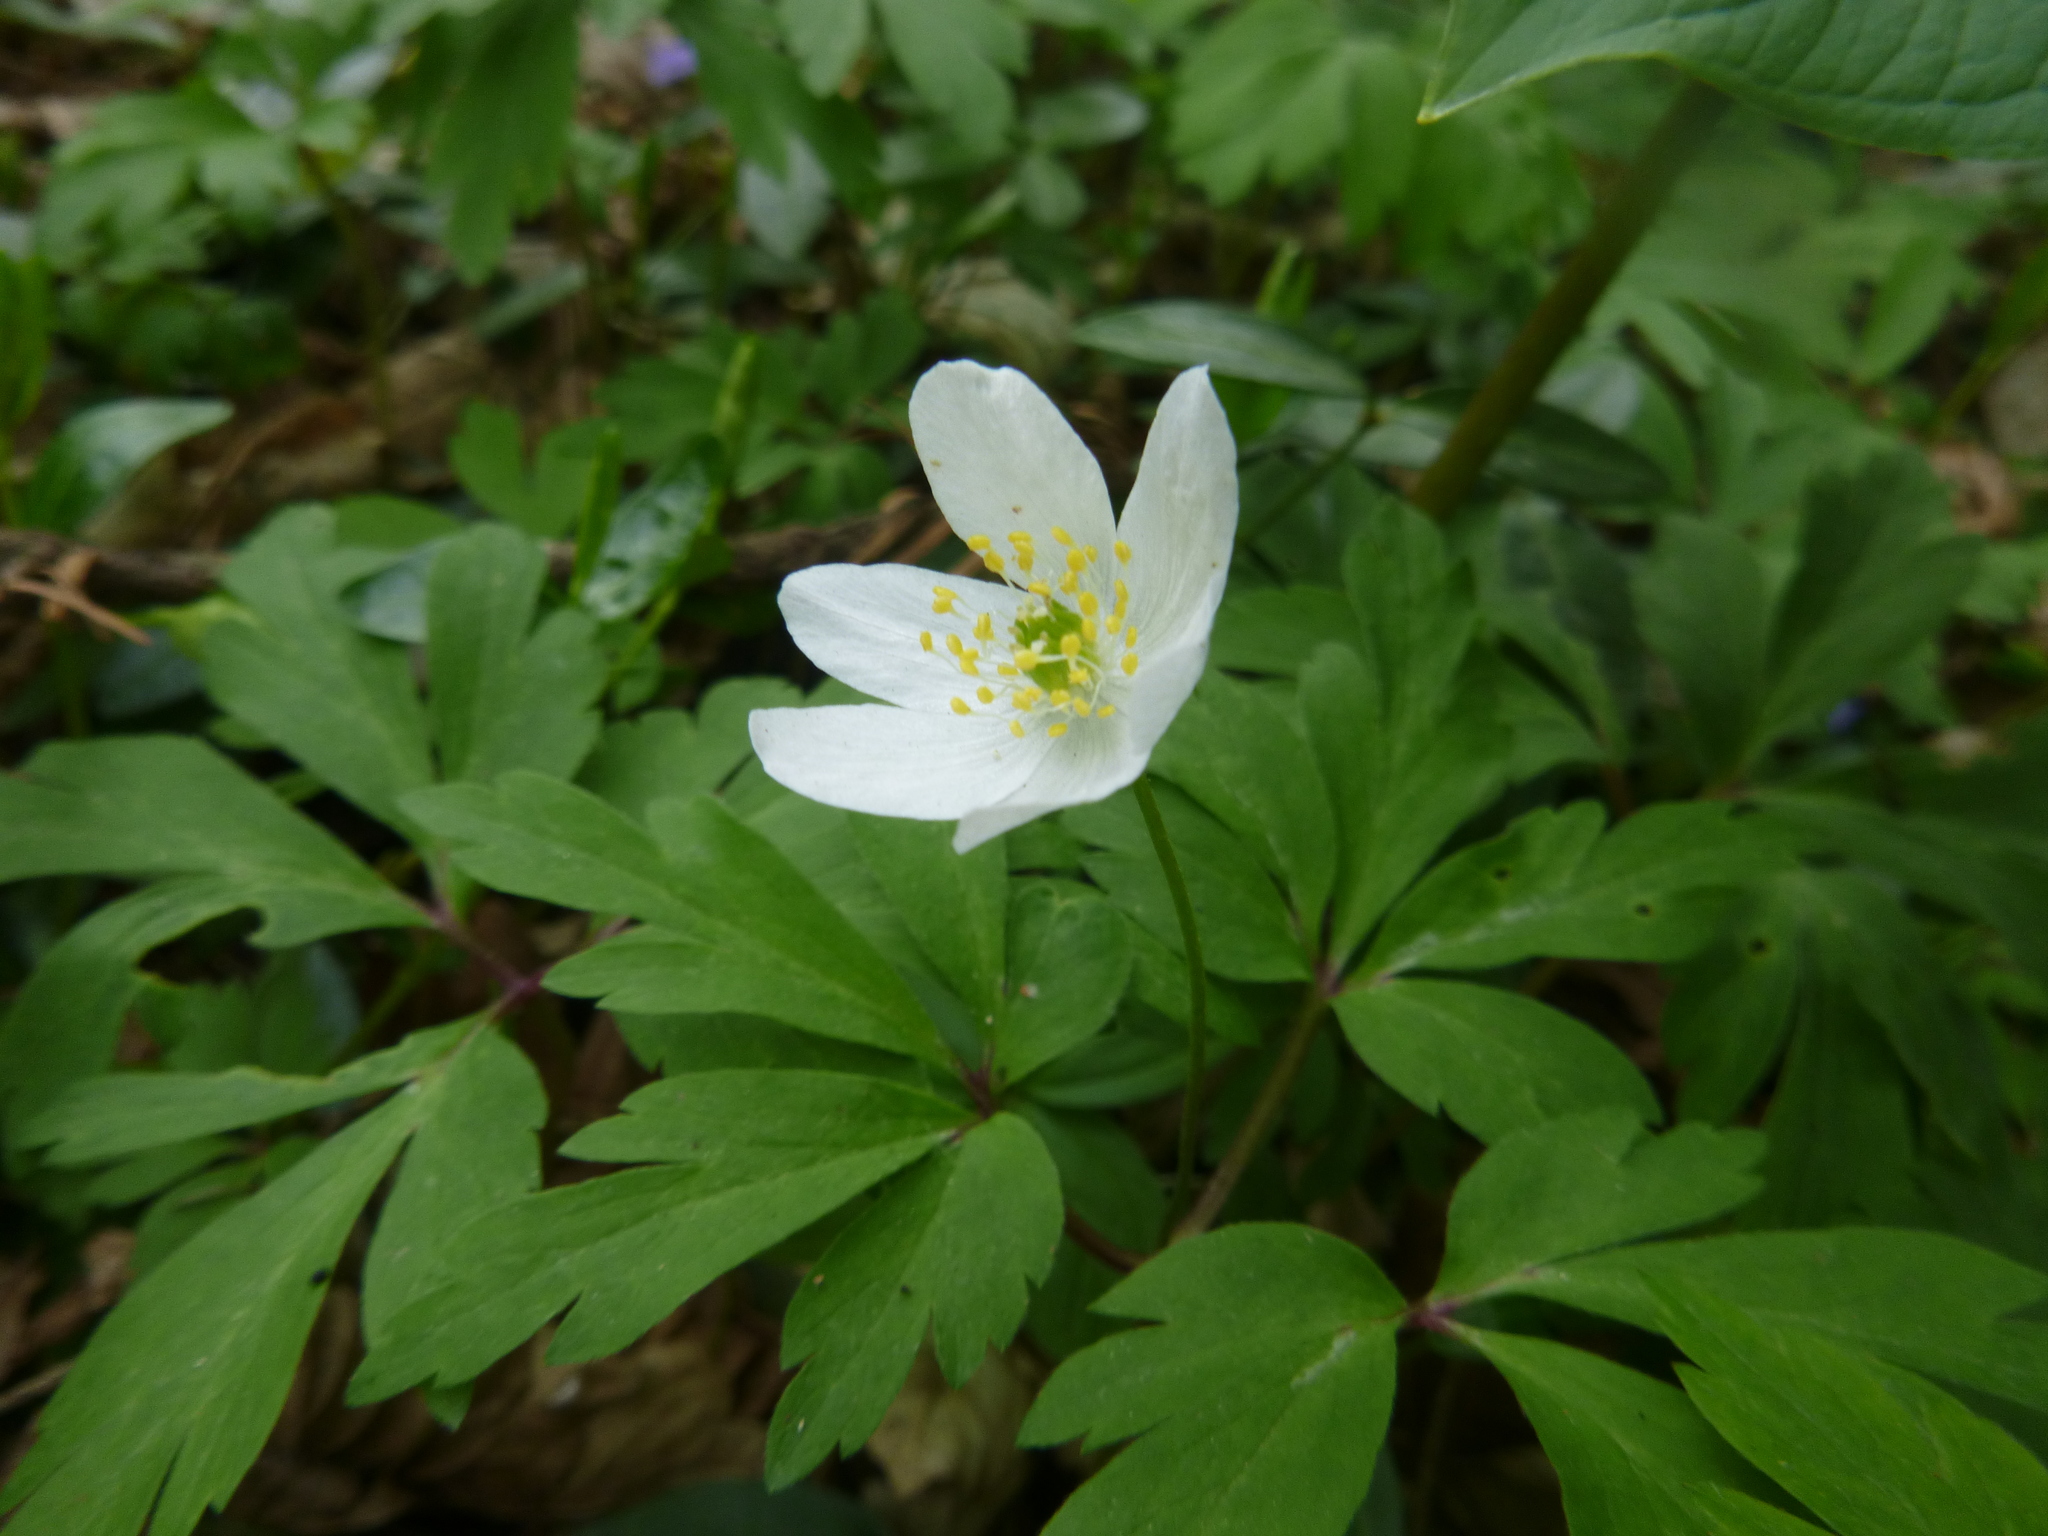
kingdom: Plantae
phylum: Tracheophyta
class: Magnoliopsida
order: Ranunculales
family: Ranunculaceae
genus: Anemone
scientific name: Anemone nemorosa
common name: Wood anemone
